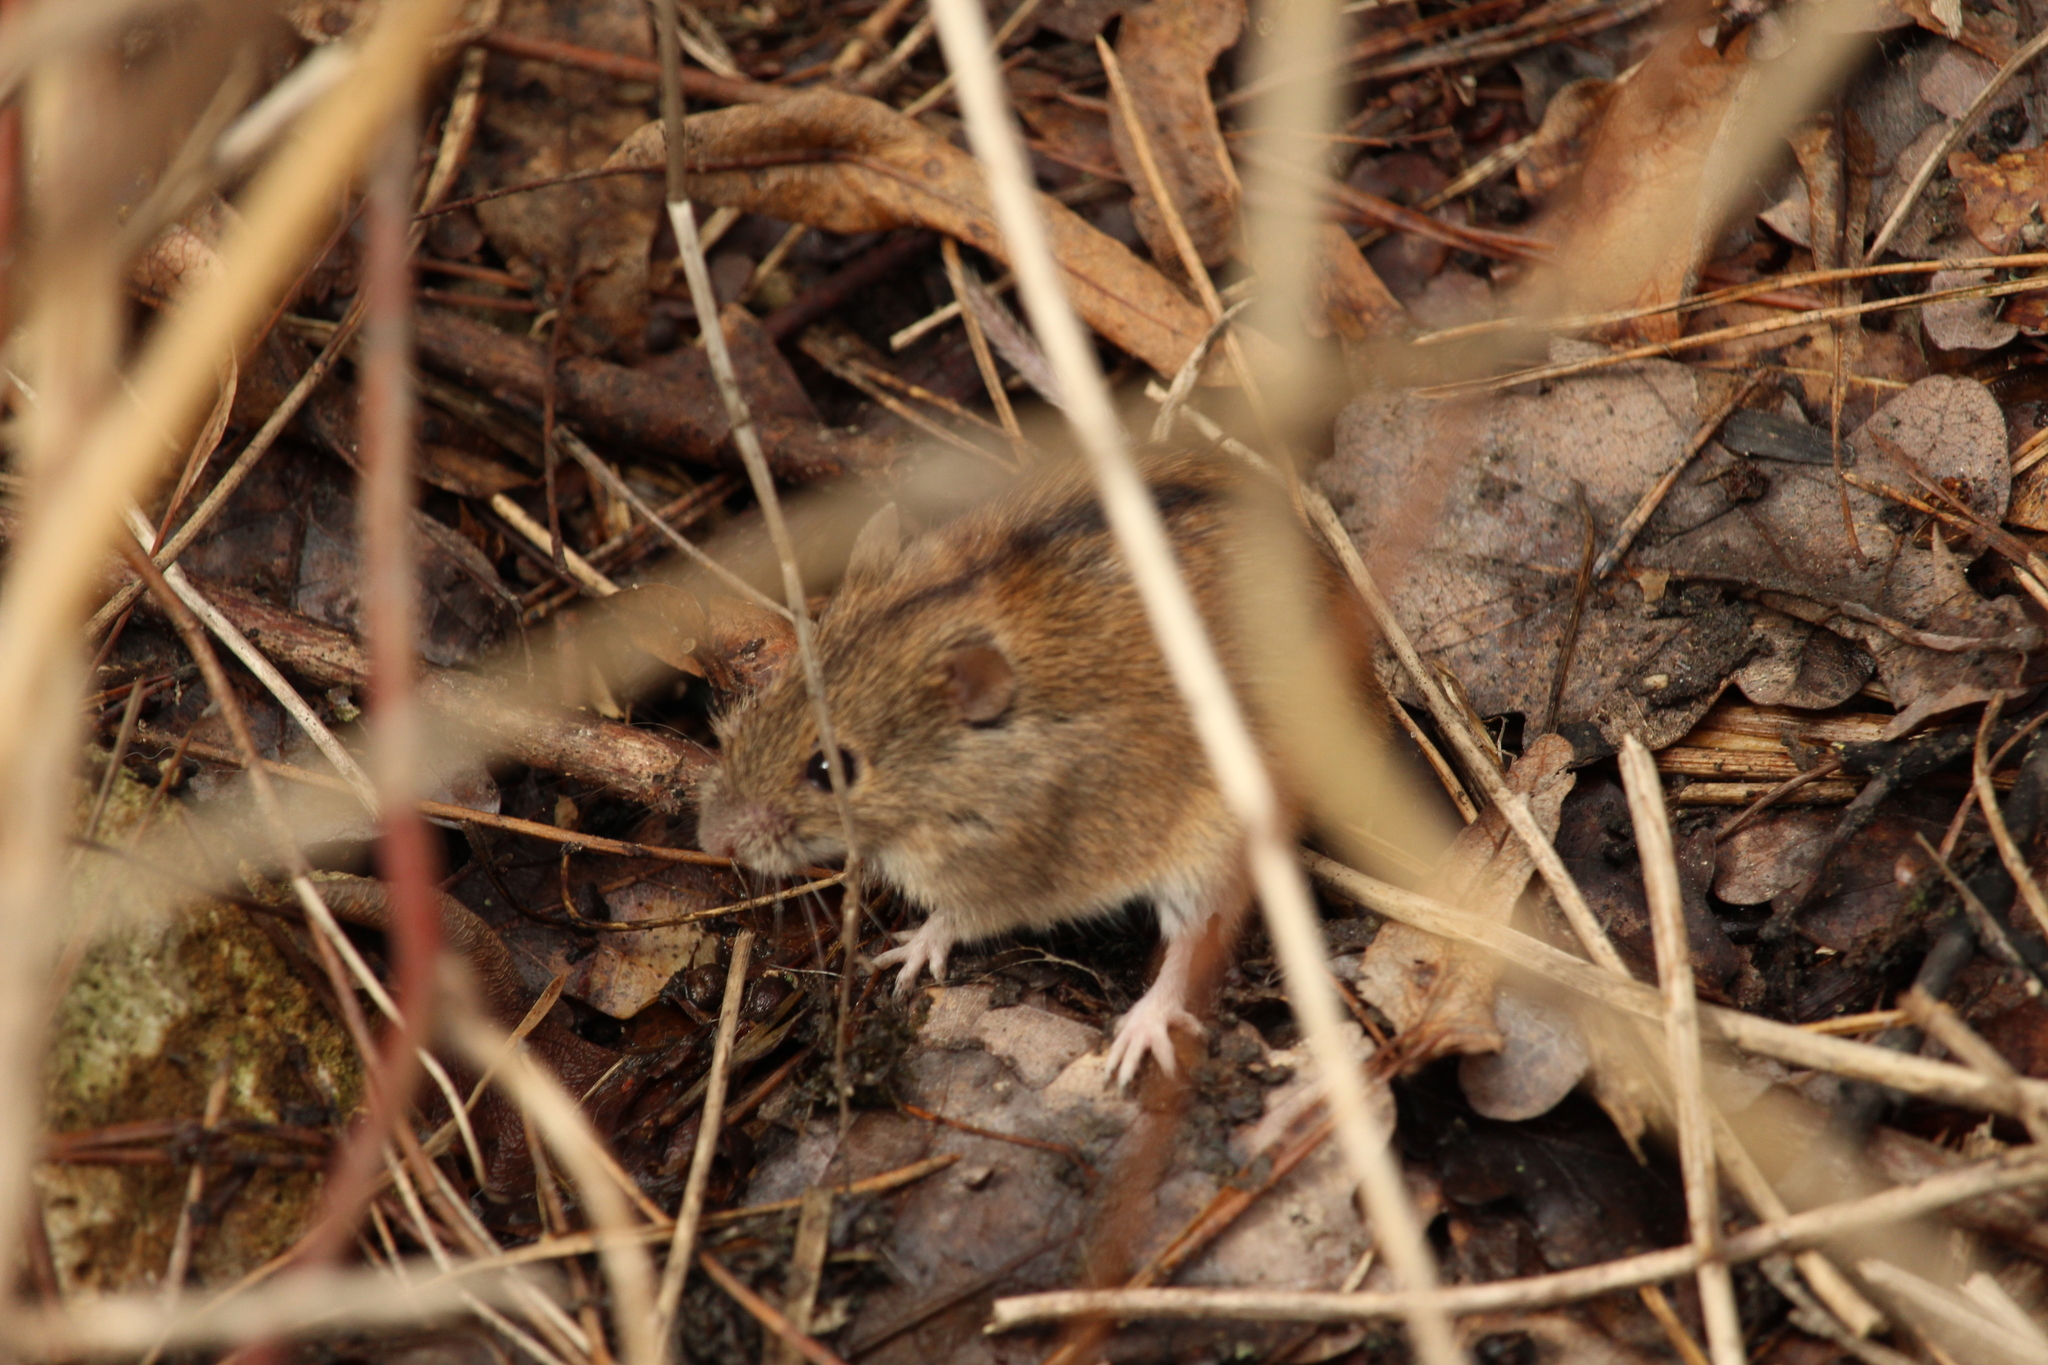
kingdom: Animalia
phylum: Chordata
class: Mammalia
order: Rodentia
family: Muridae
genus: Apodemus
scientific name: Apodemus agrarius
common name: Striped field mouse
